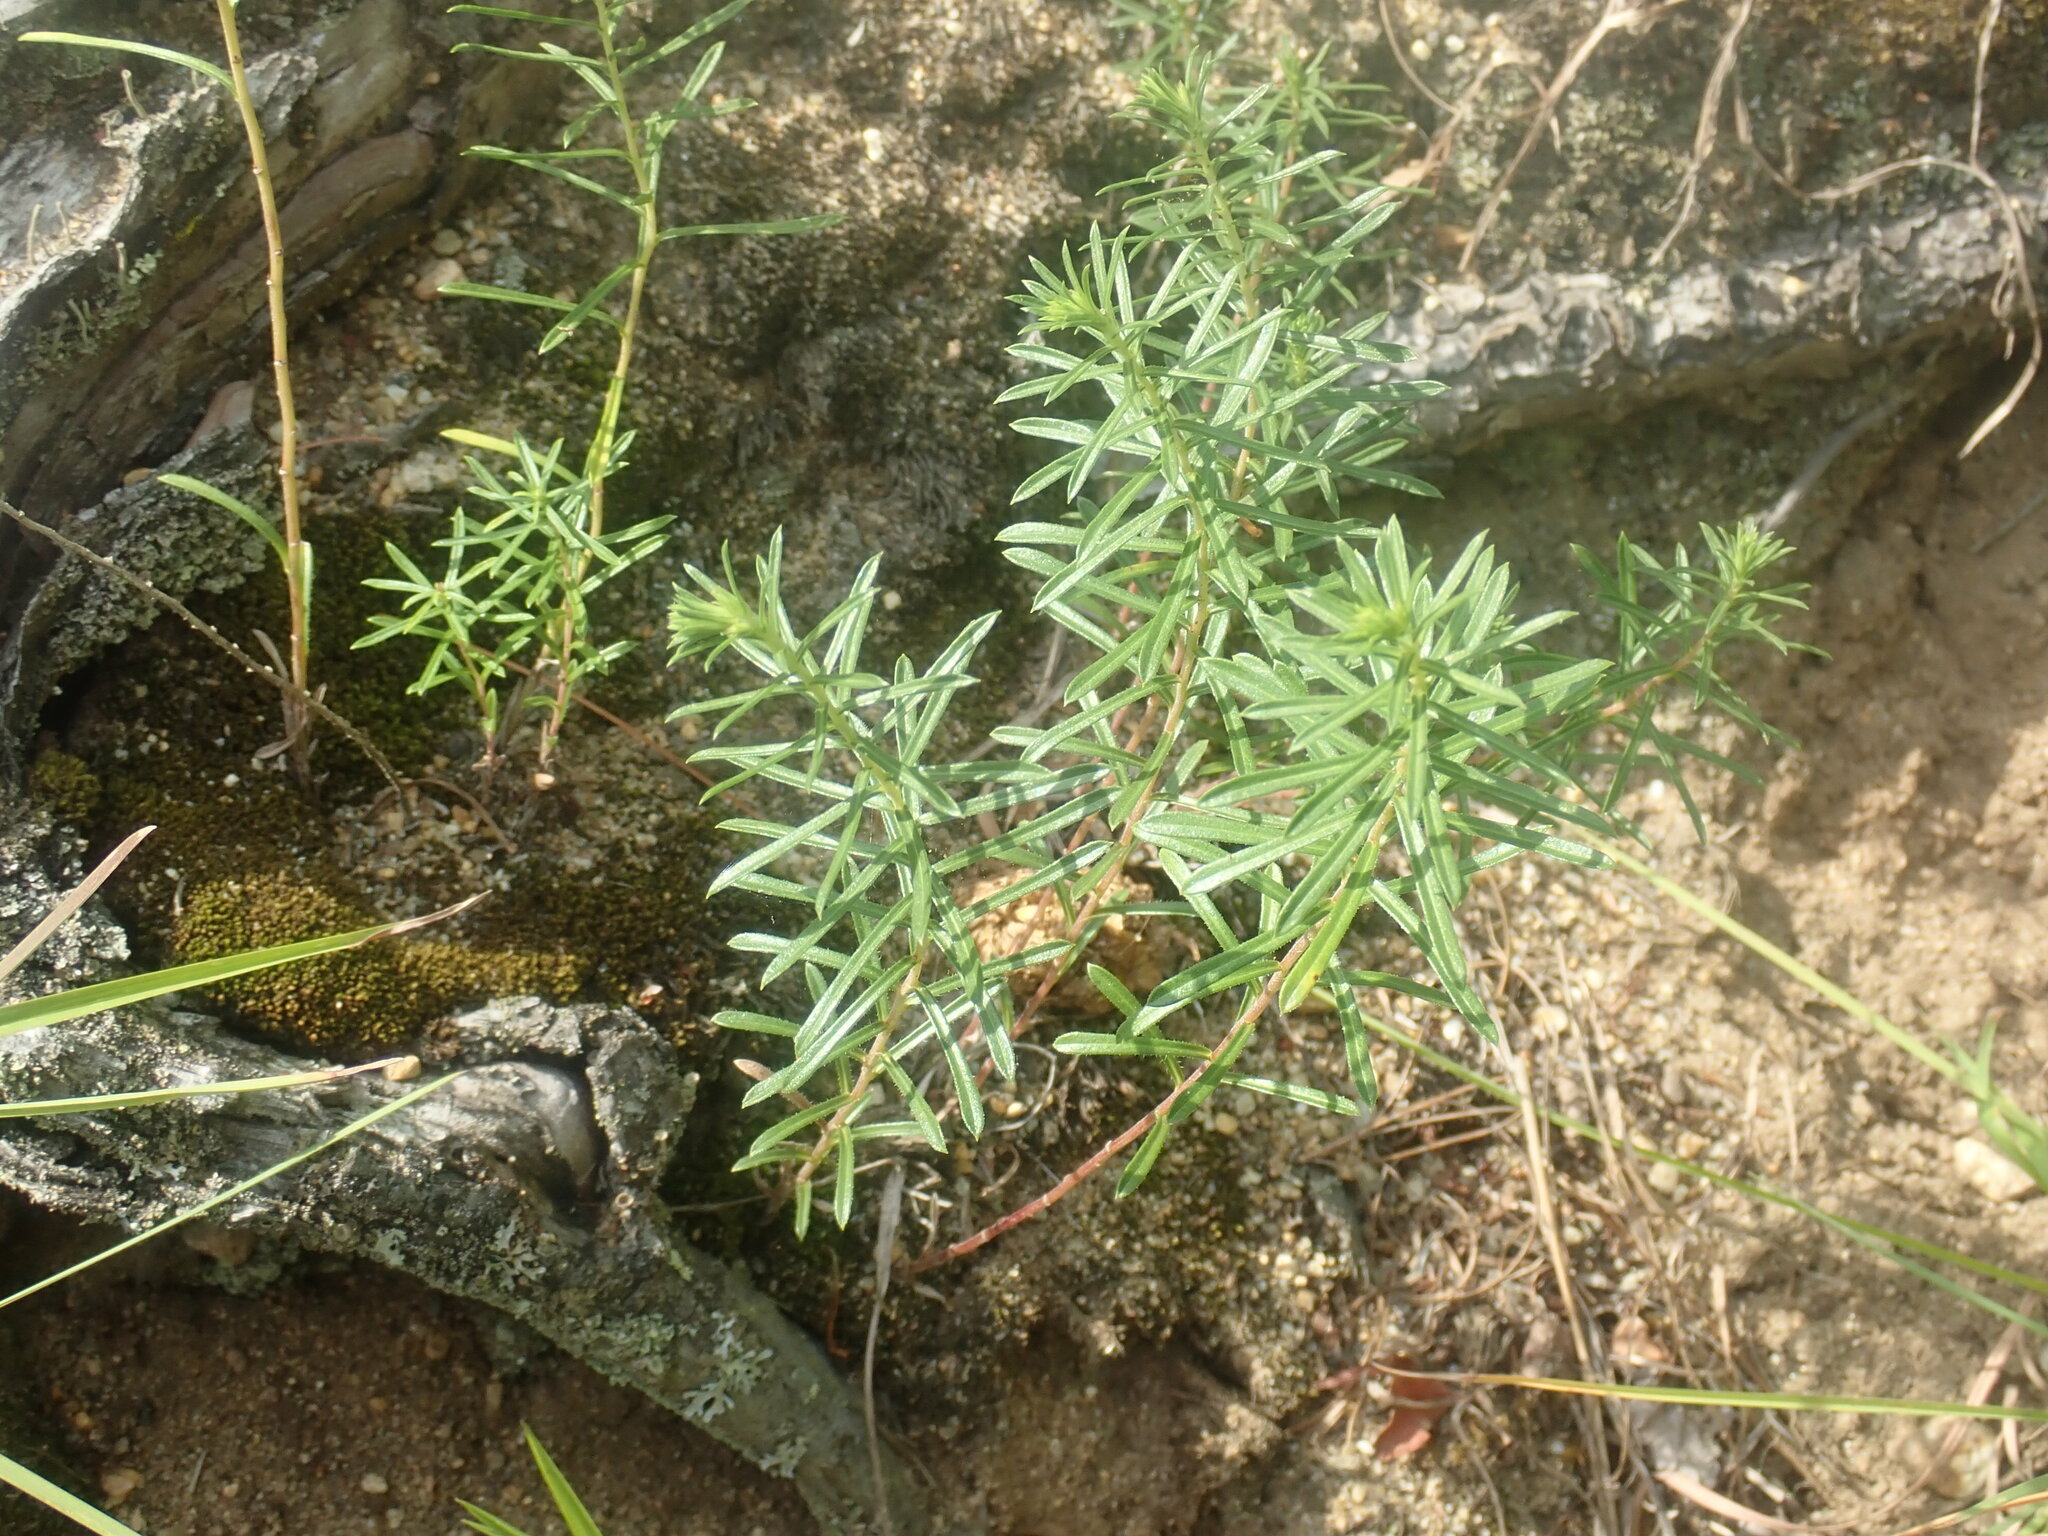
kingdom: Plantae
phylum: Tracheophyta
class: Magnoliopsida
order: Asterales
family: Asteraceae
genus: Ionactis
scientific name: Ionactis linariifolia
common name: Flax-leaf aster
